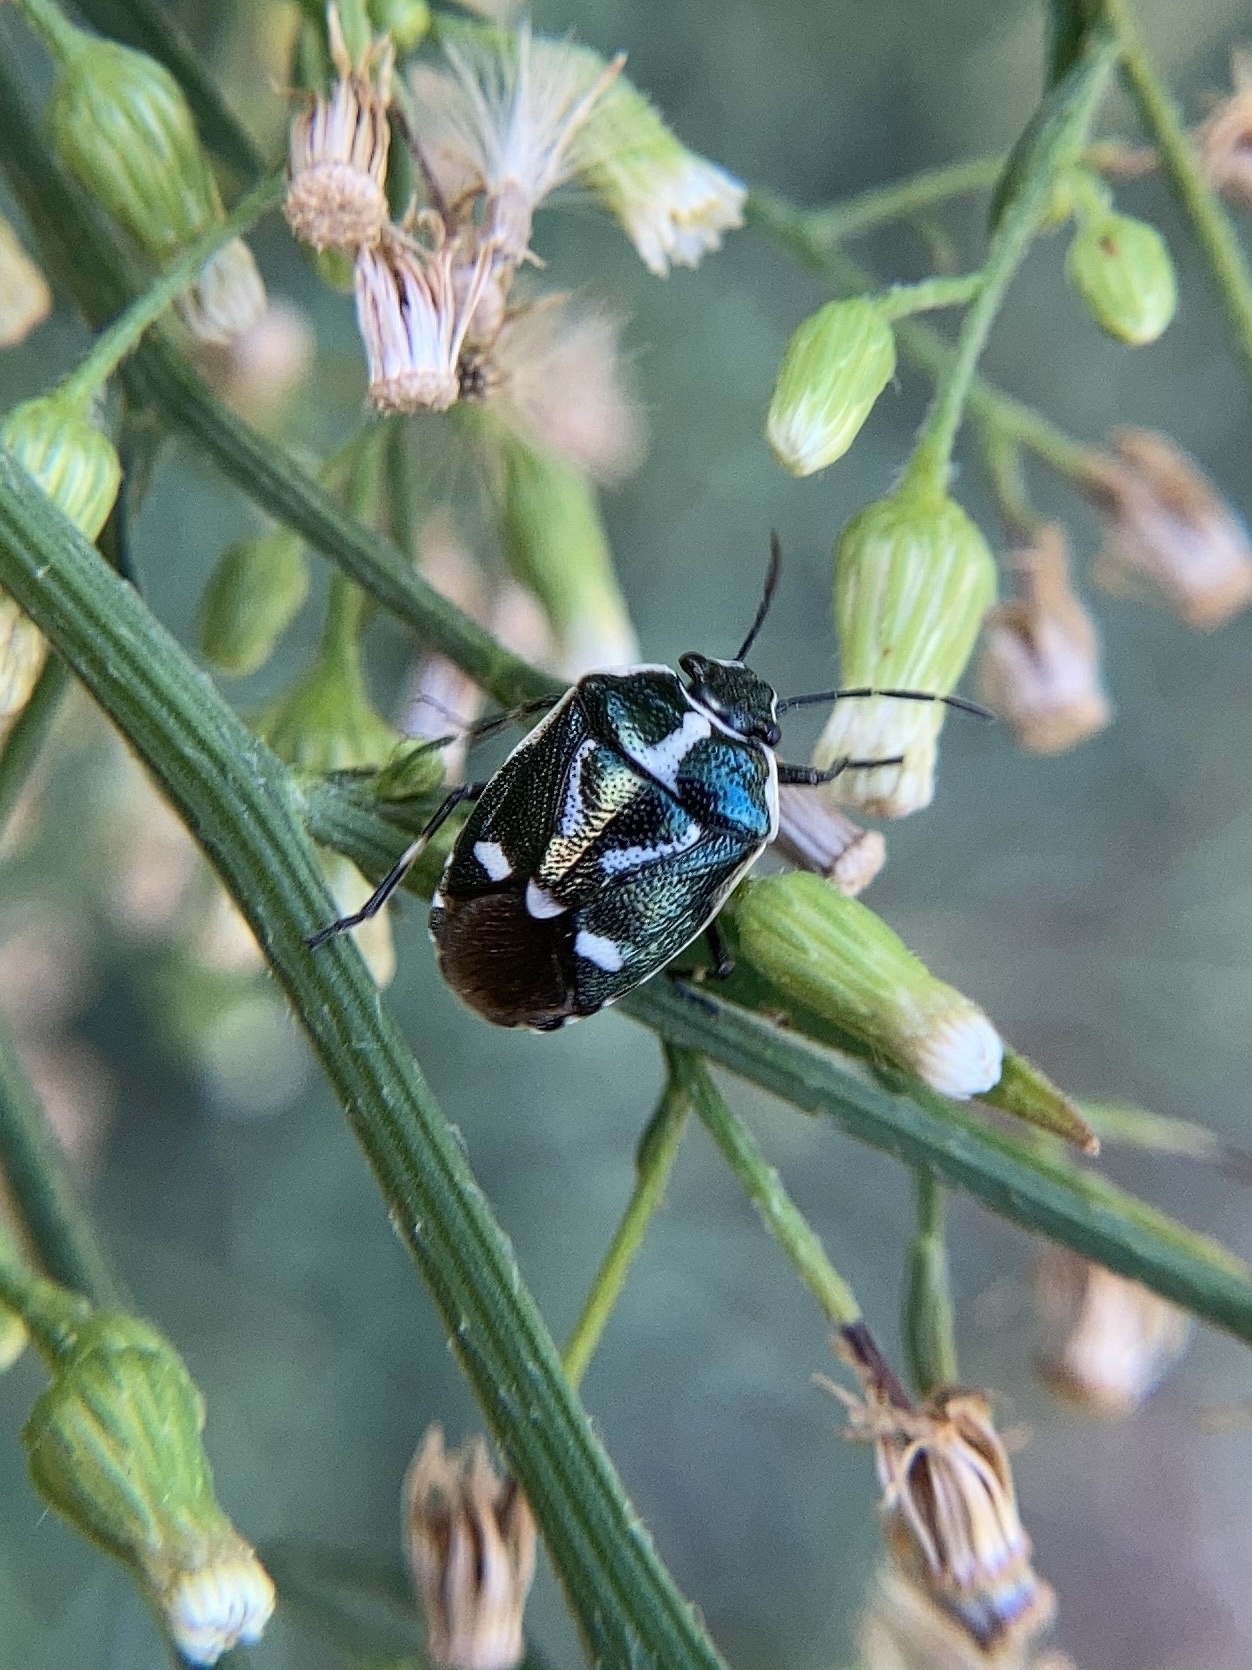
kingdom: Animalia
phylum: Arthropoda
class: Insecta
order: Hemiptera
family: Pentatomidae
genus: Eurydema
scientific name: Eurydema oleracea
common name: Cabbage bug
